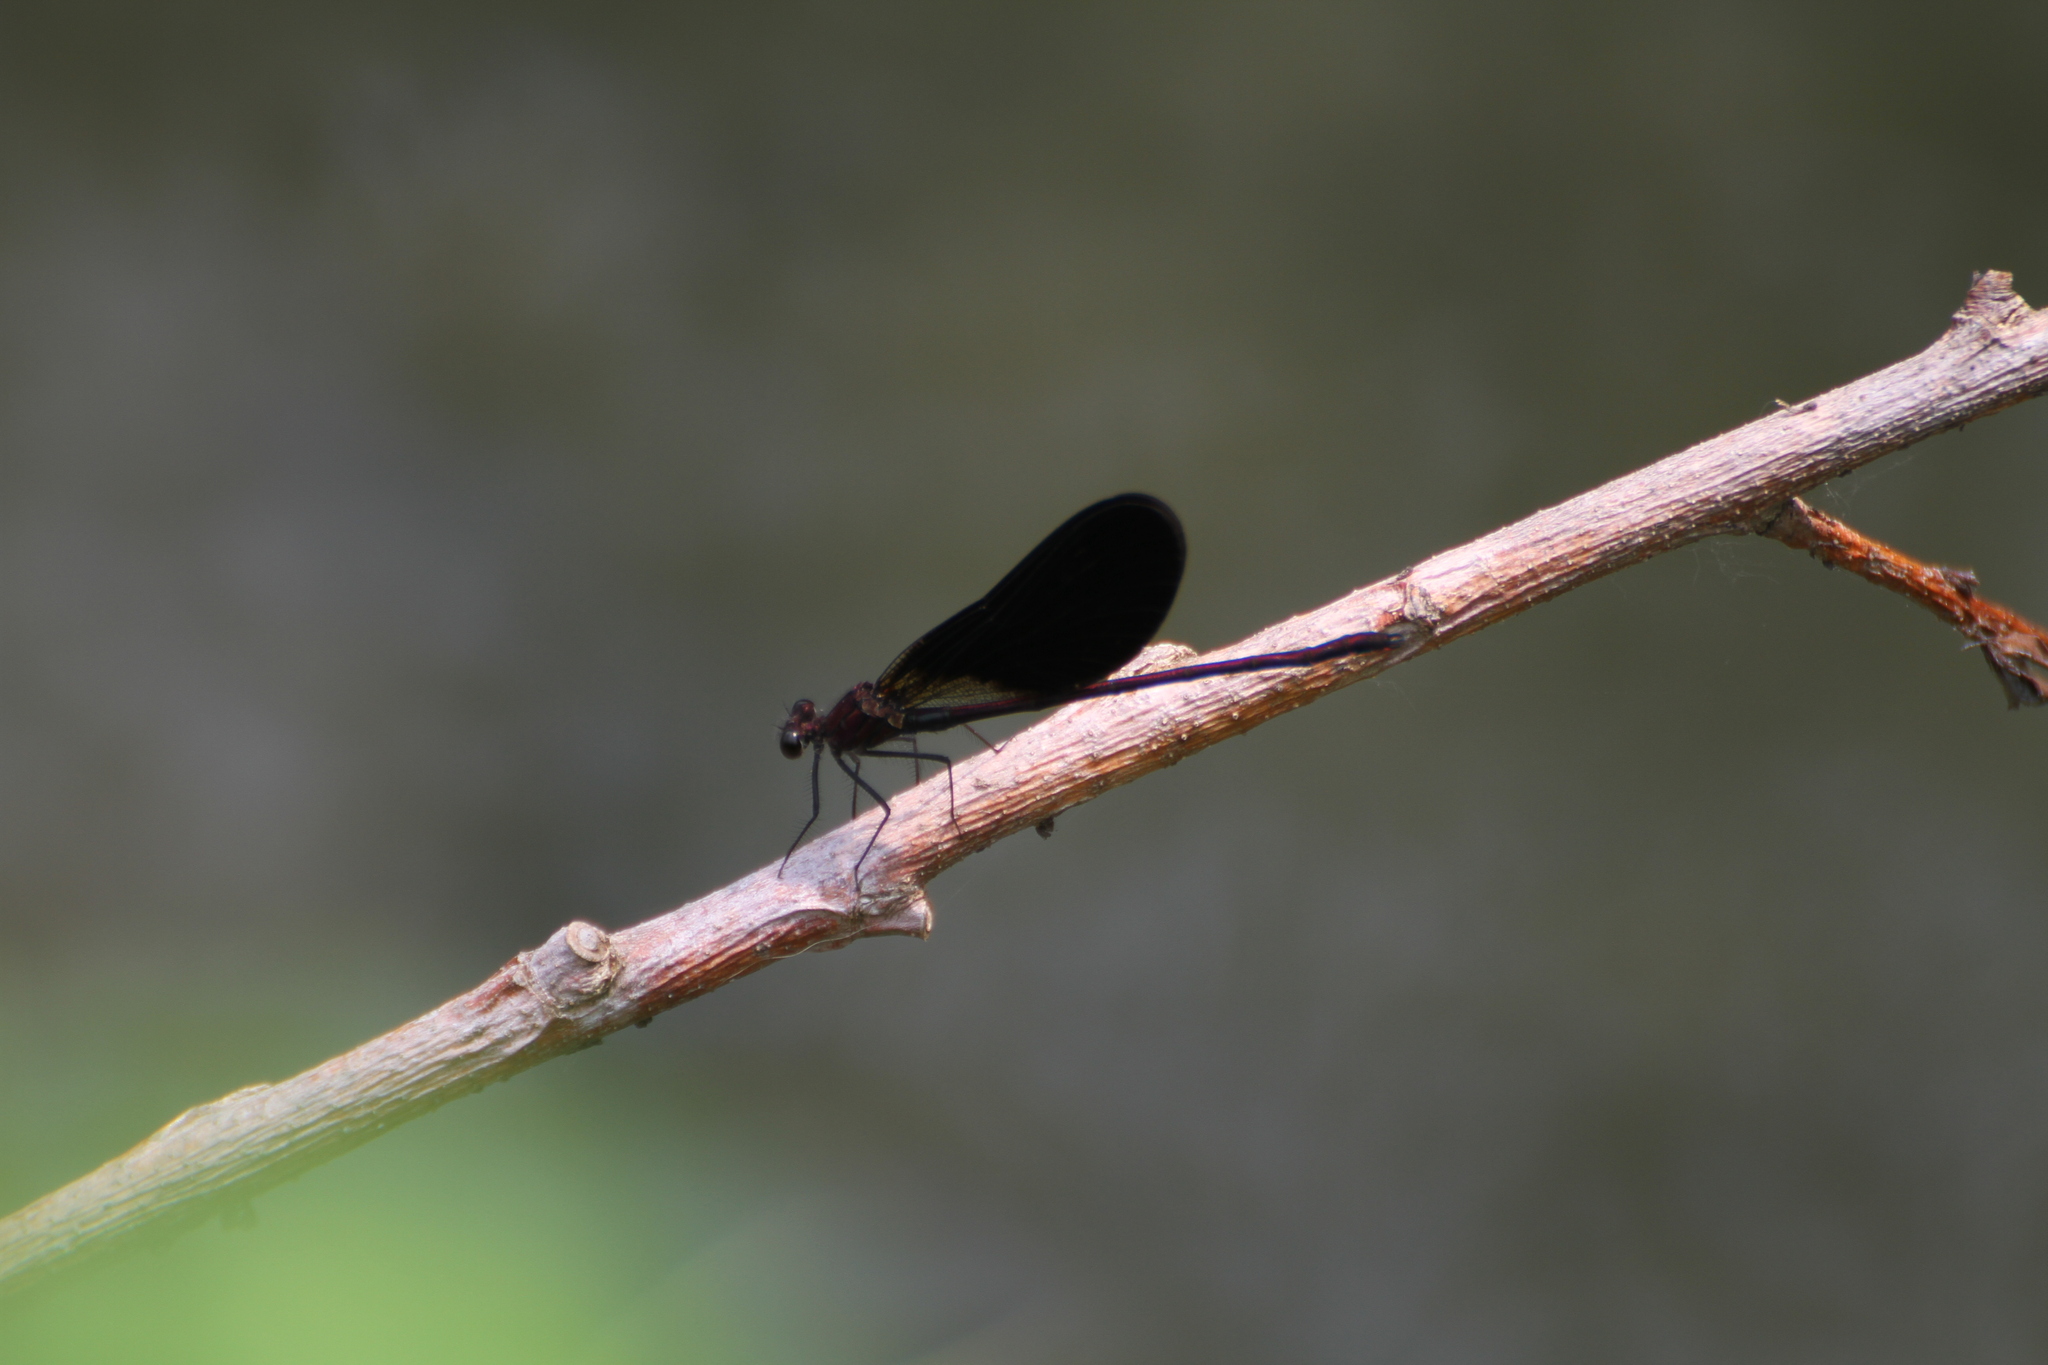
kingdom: Animalia
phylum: Arthropoda
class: Insecta
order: Odonata
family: Calopterygidae
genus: Calopteryx
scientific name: Calopteryx haemorrhoidalis
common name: Copper demoiselle
